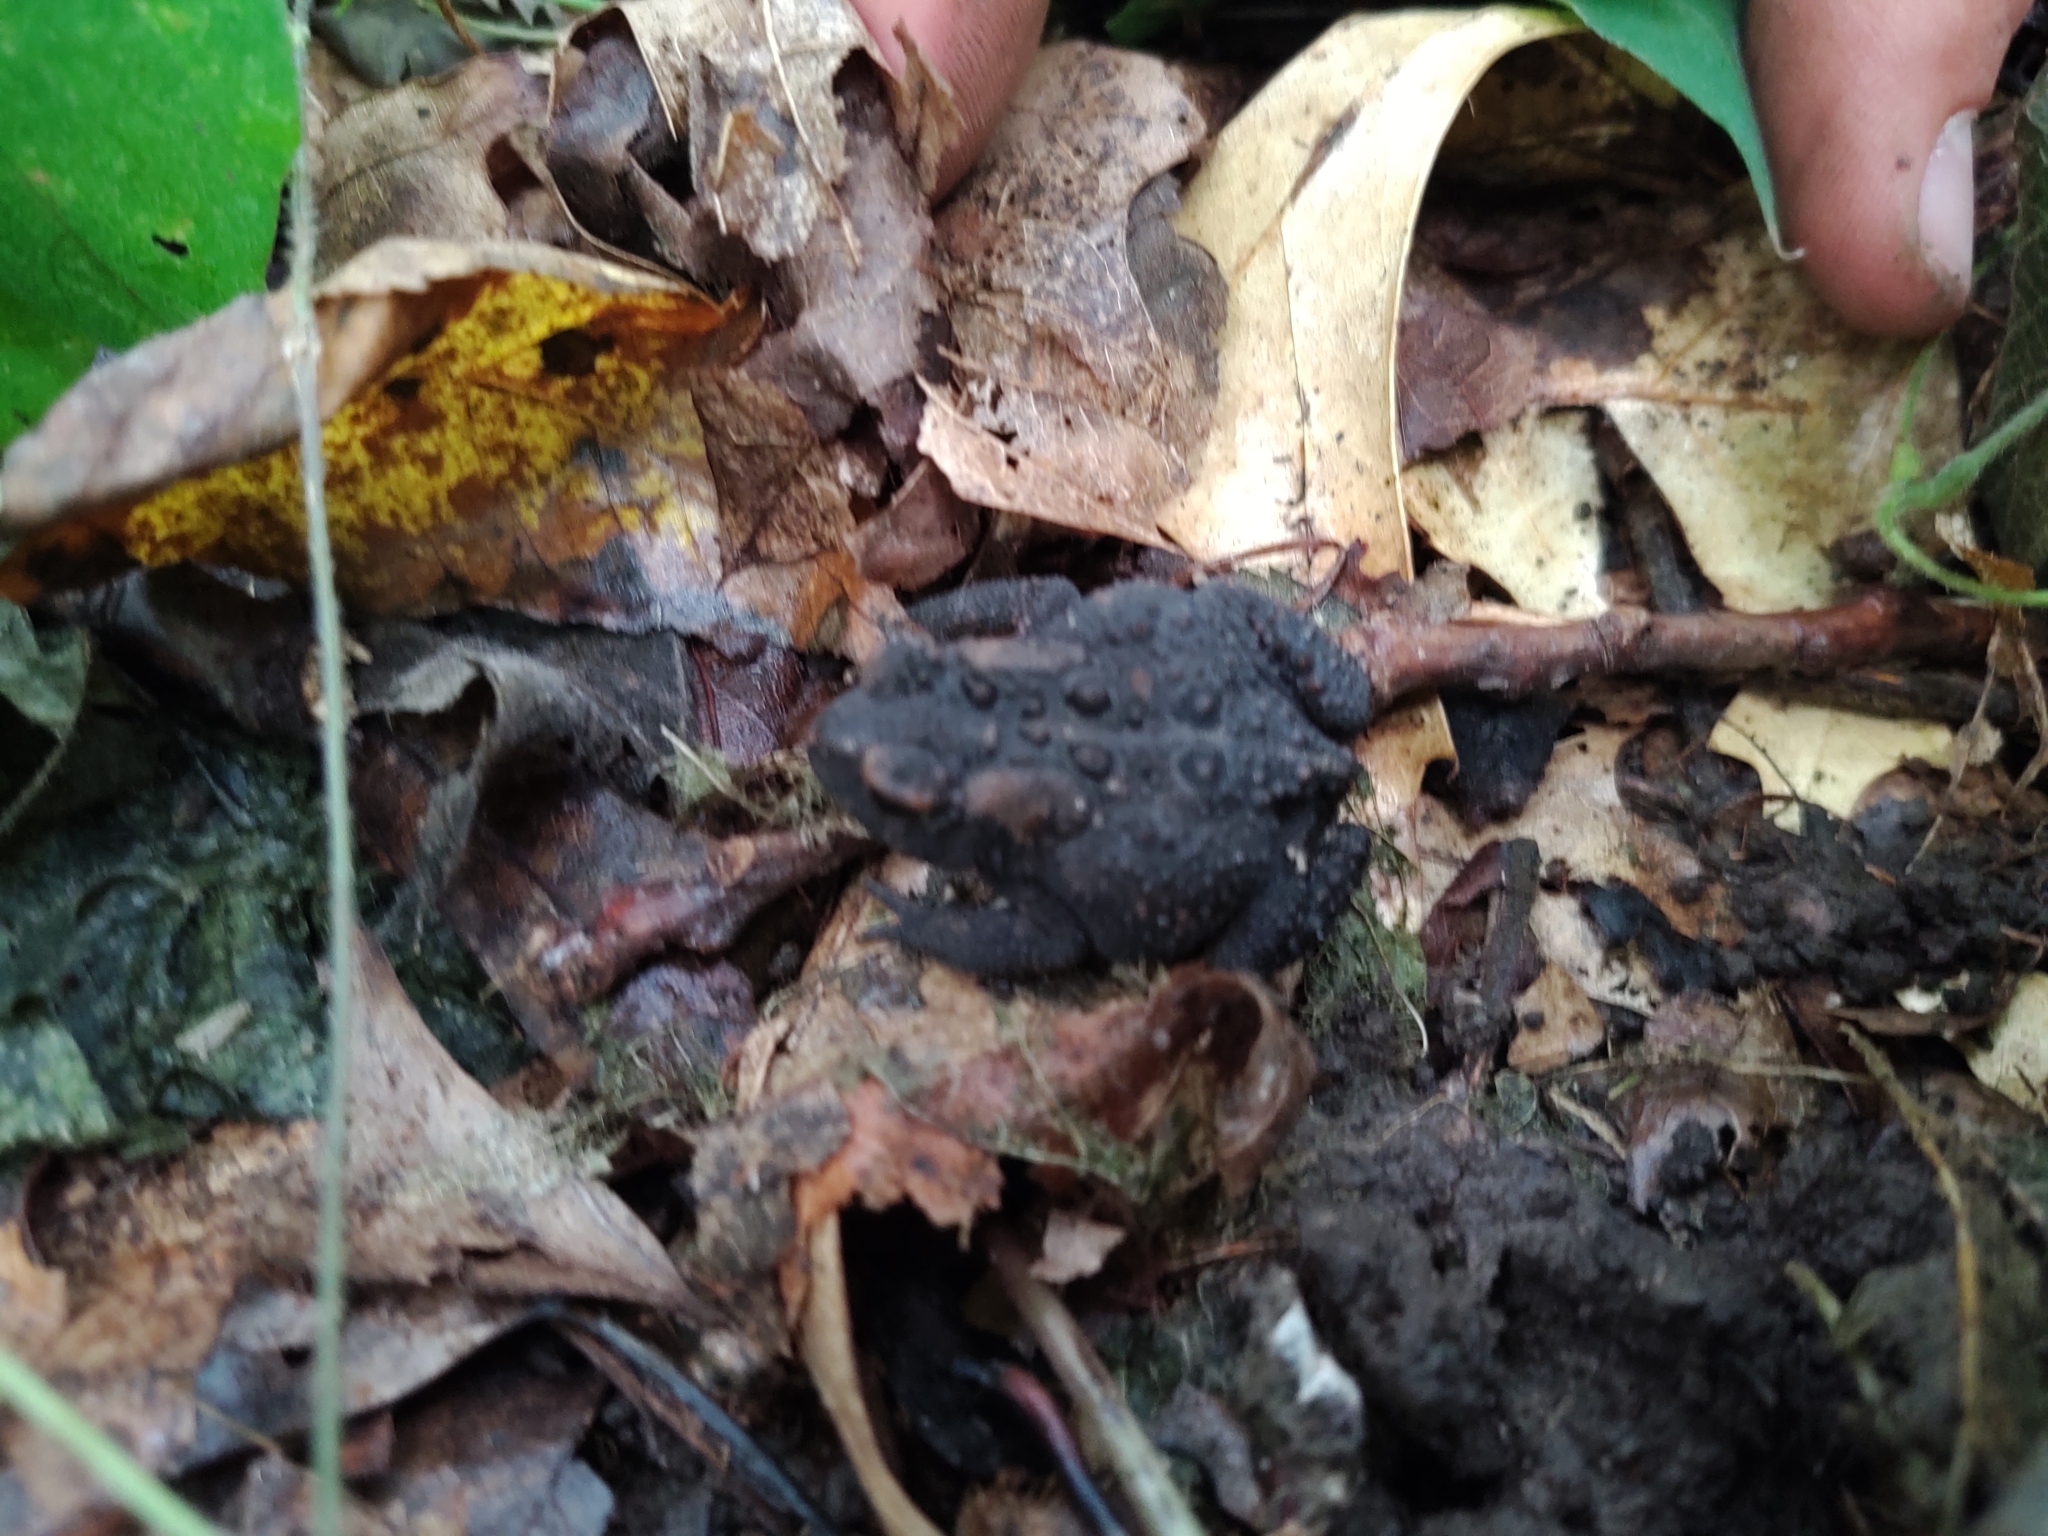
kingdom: Animalia
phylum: Chordata
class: Amphibia
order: Anura
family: Bufonidae
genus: Anaxyrus
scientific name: Anaxyrus americanus
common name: American toad
